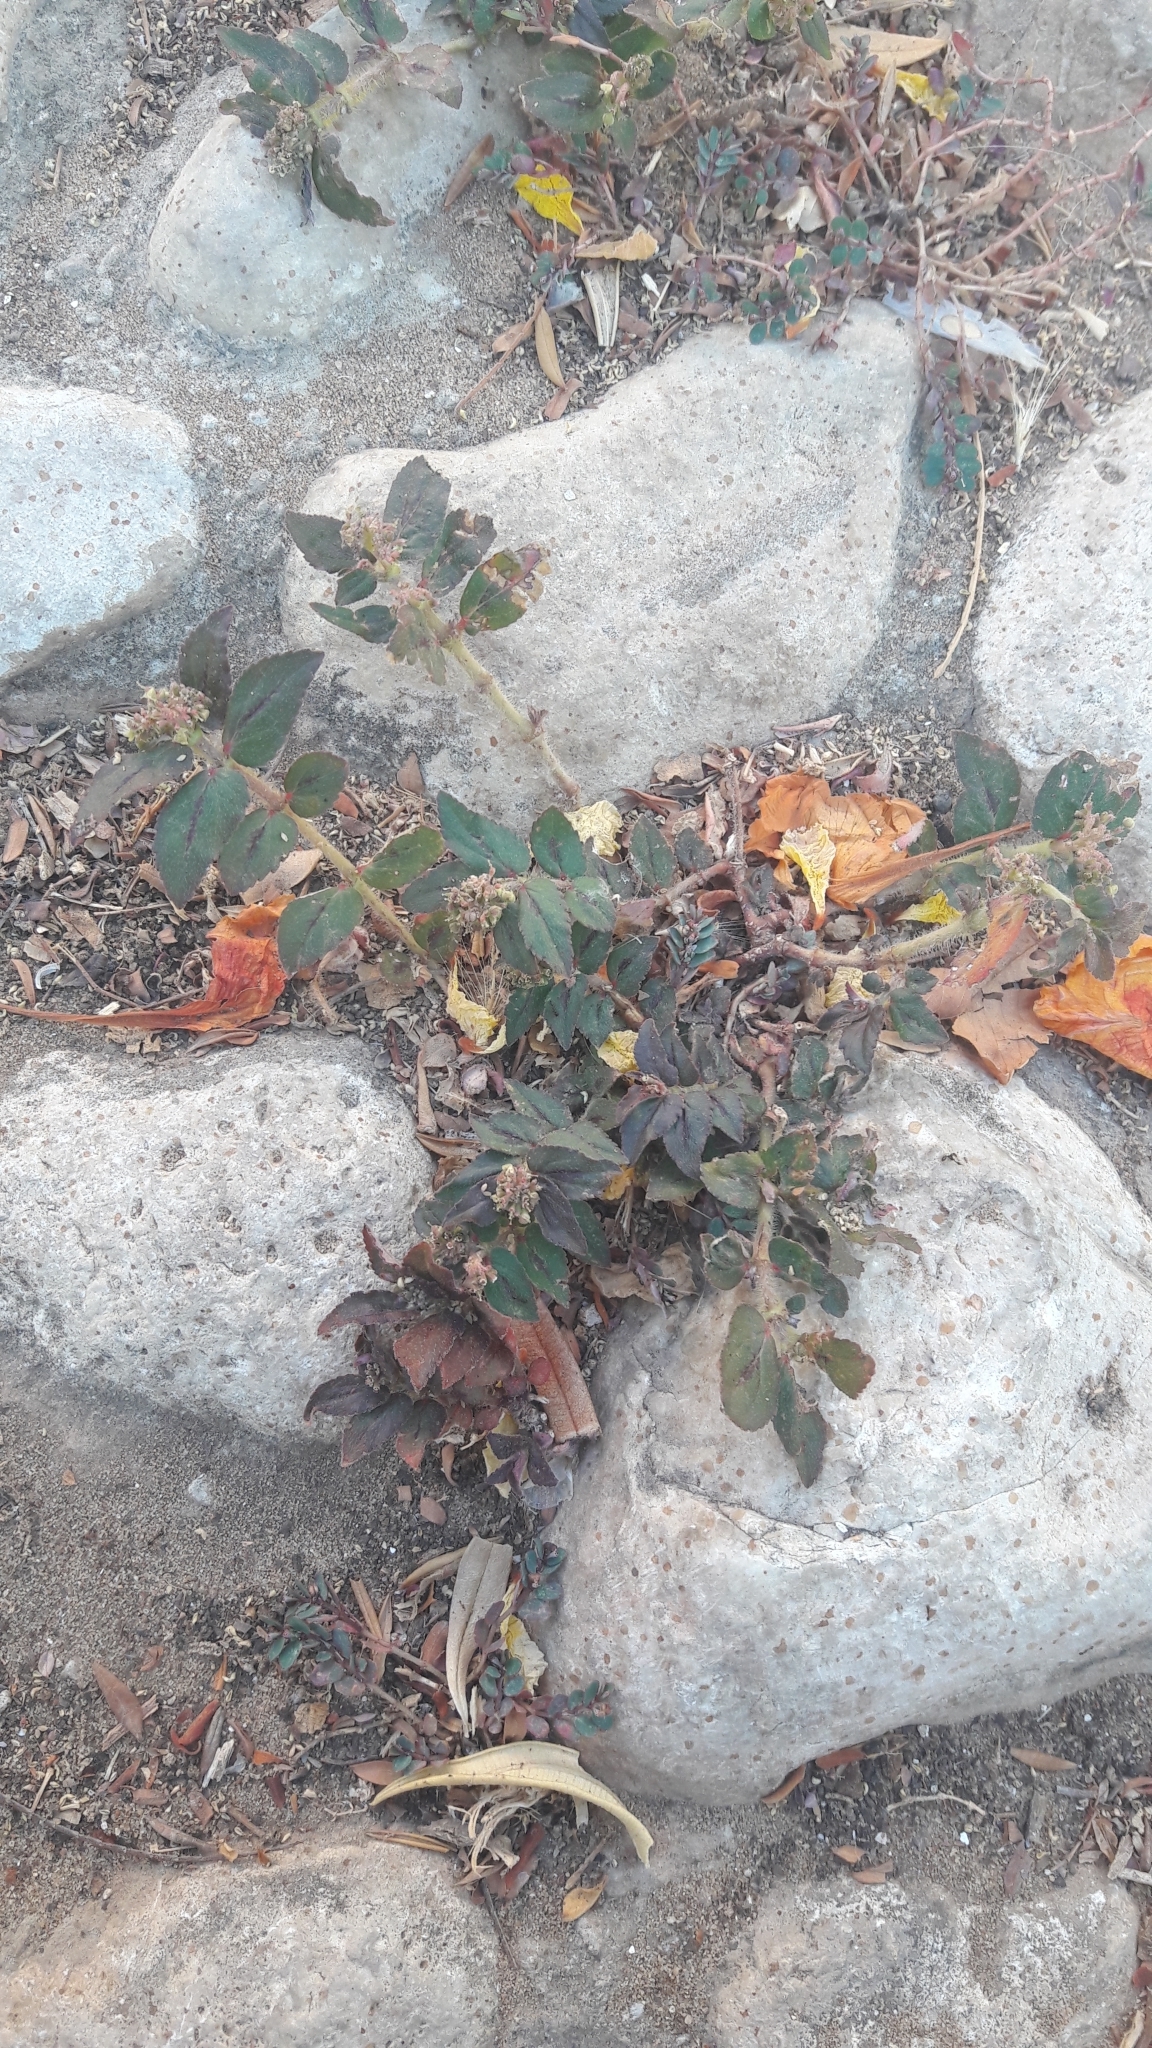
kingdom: Plantae
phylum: Tracheophyta
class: Magnoliopsida
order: Malpighiales
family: Euphorbiaceae
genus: Euphorbia
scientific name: Euphorbia hirta
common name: Pillpod sandmat
